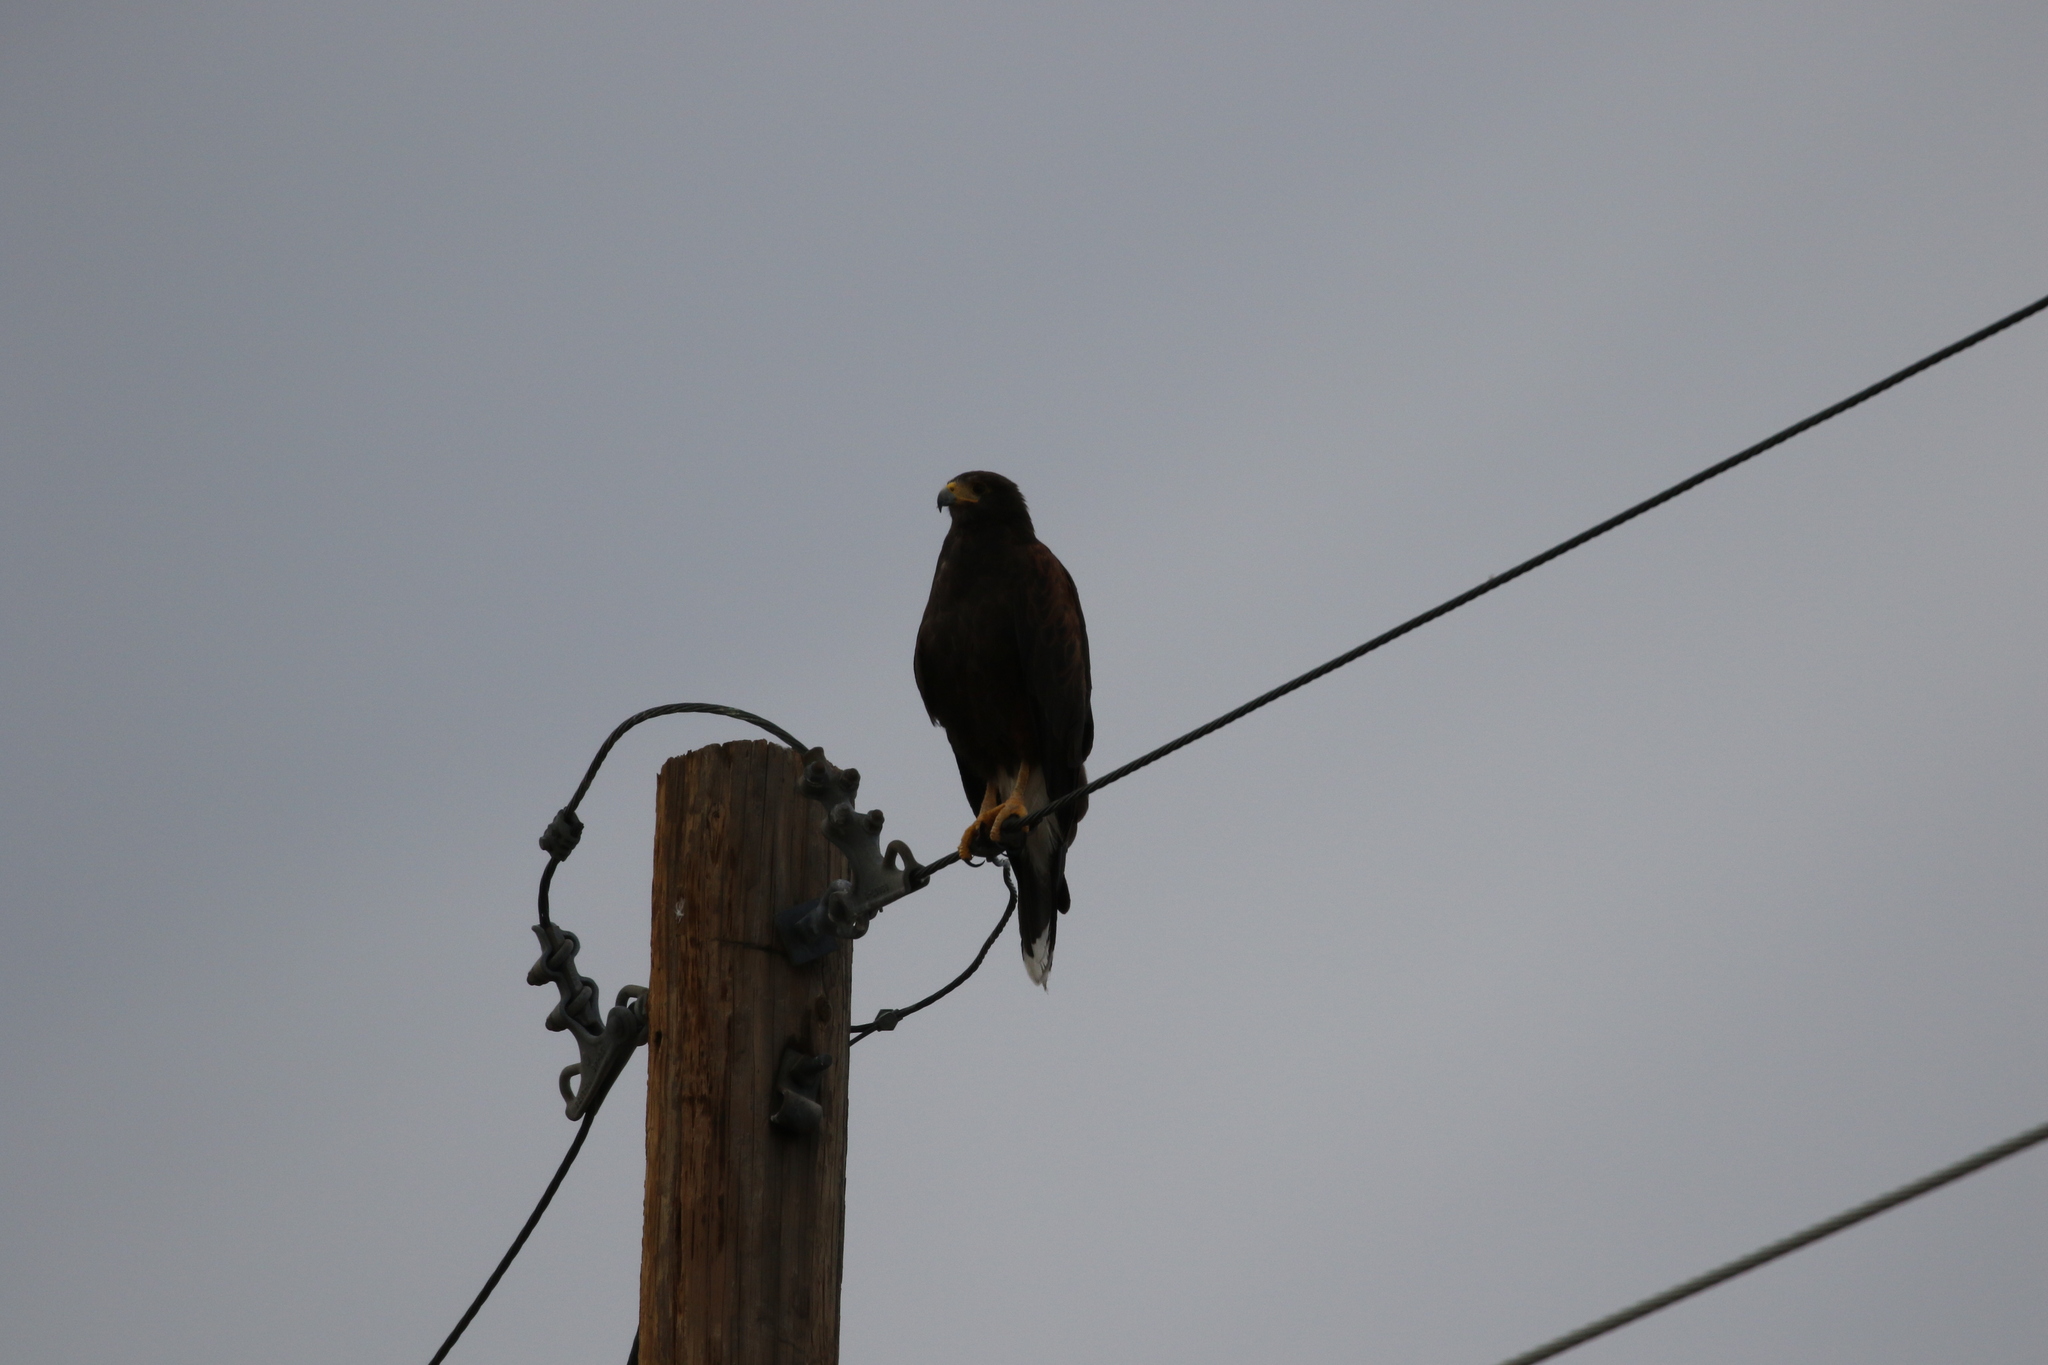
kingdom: Animalia
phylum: Chordata
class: Aves
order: Accipitriformes
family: Accipitridae
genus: Parabuteo
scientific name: Parabuteo unicinctus
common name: Harris's hawk
